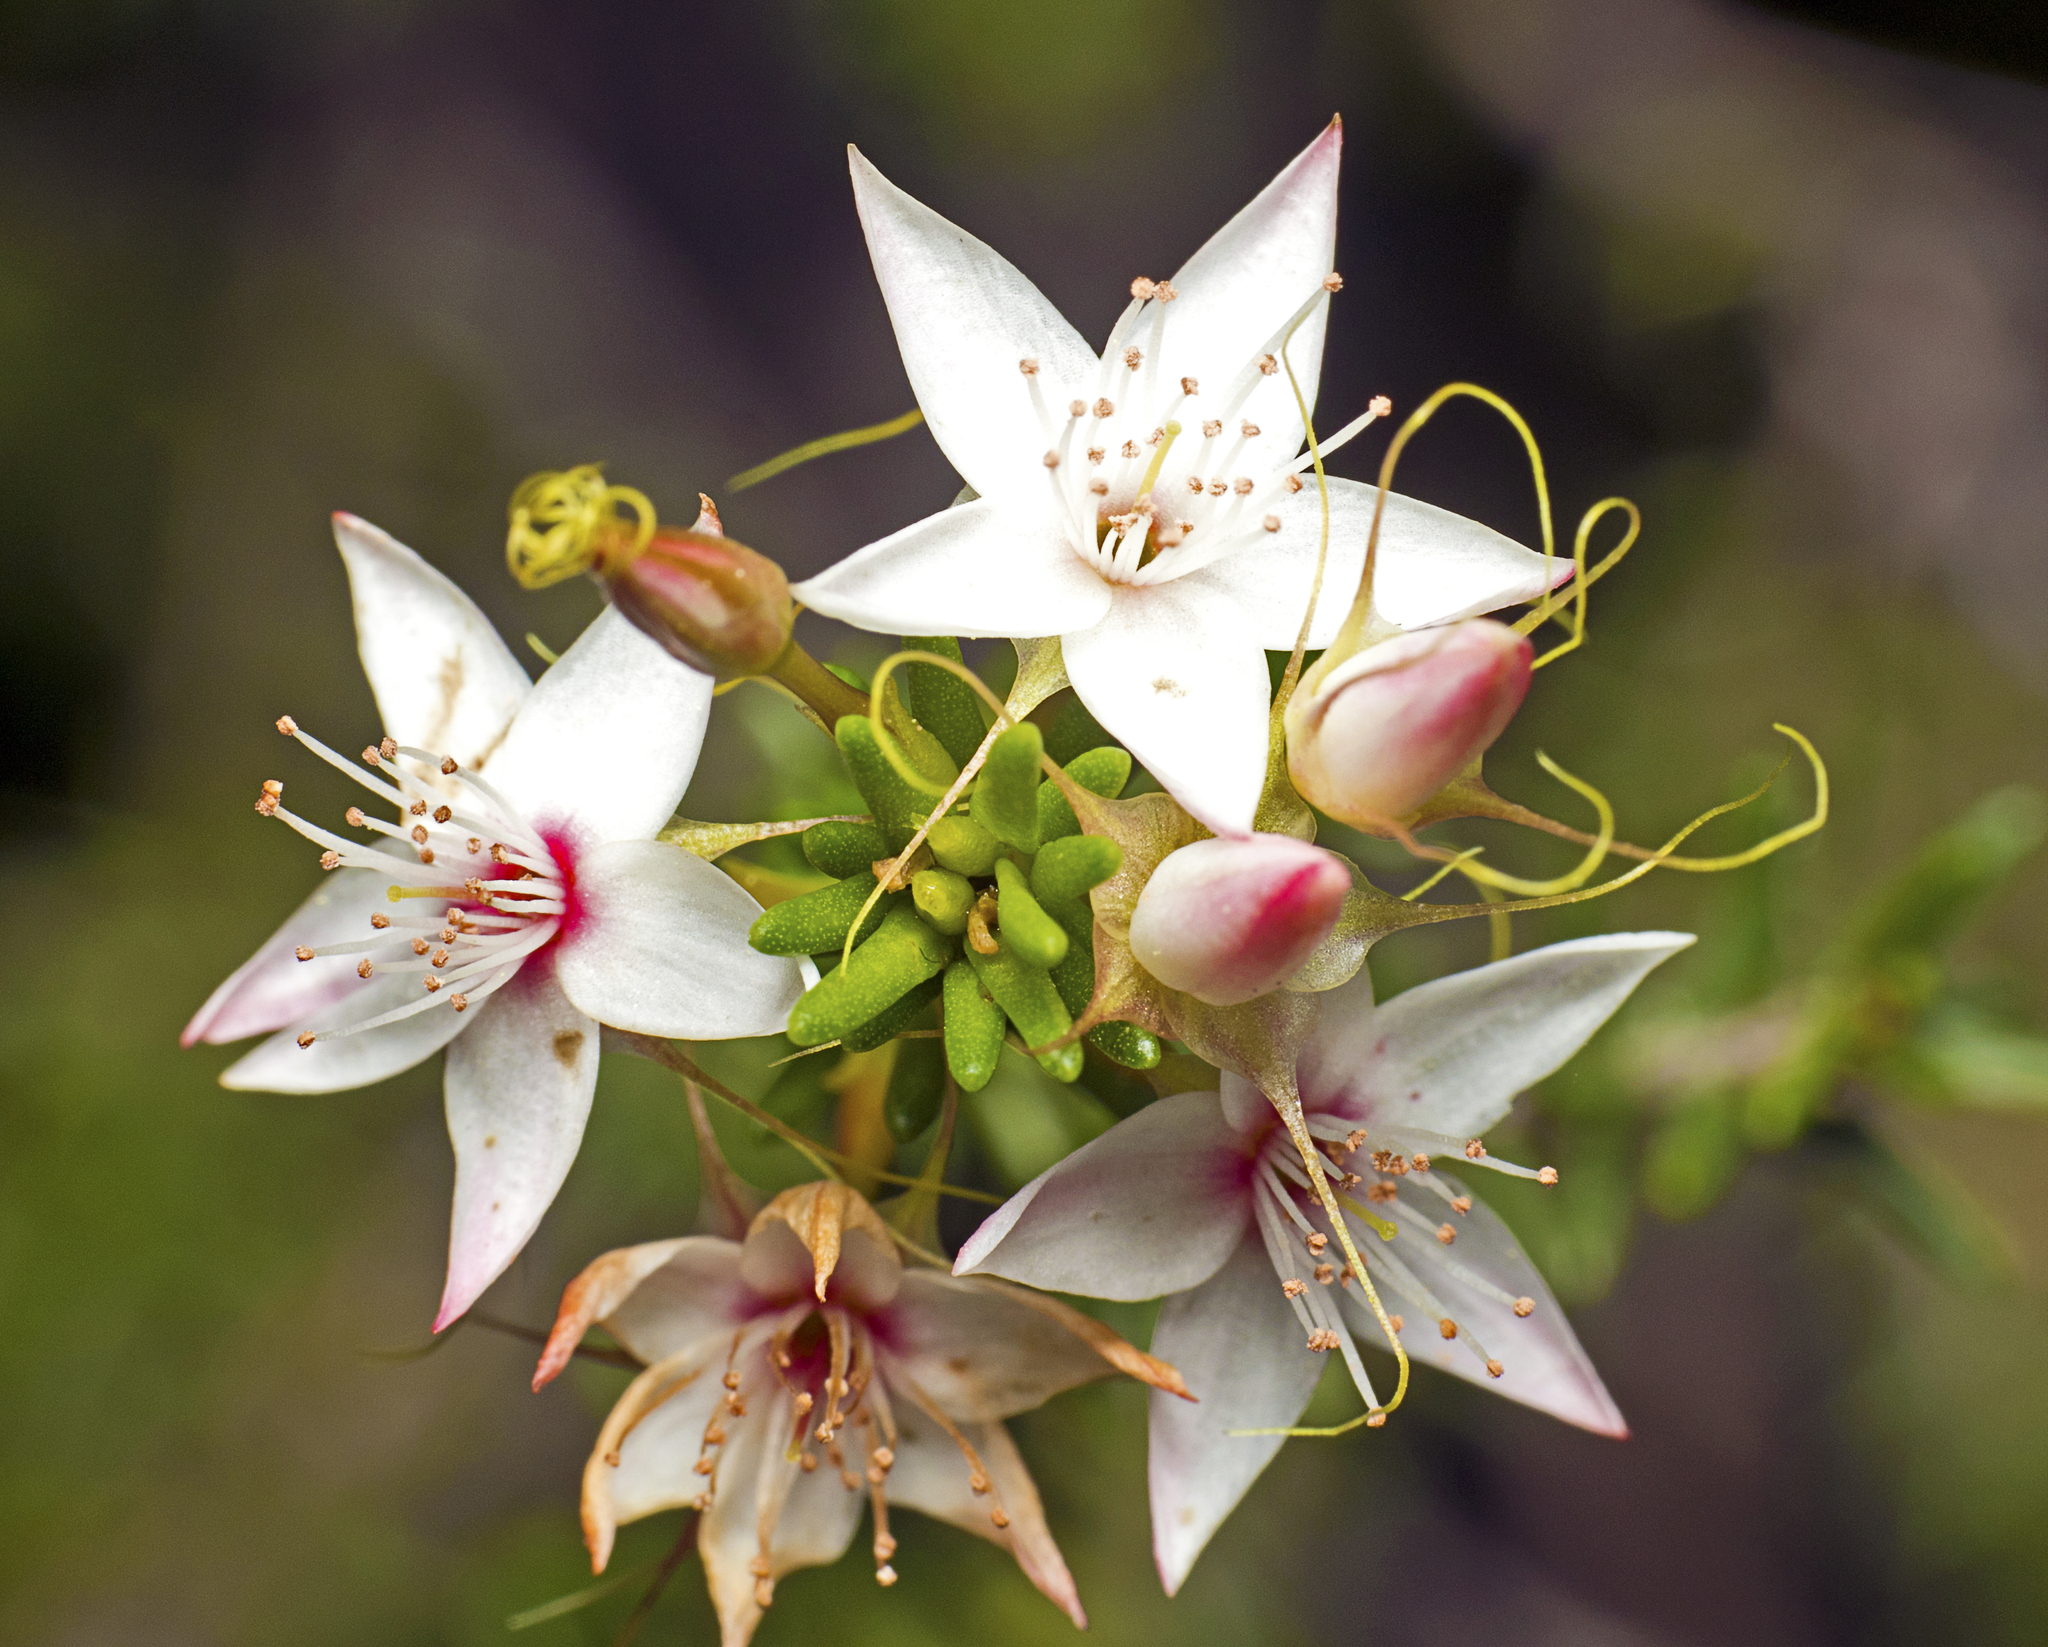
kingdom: Plantae
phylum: Tracheophyta
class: Magnoliopsida
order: Myrtales
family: Myrtaceae
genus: Calytrix
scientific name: Calytrix tetragona
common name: Common fringe myrtle
